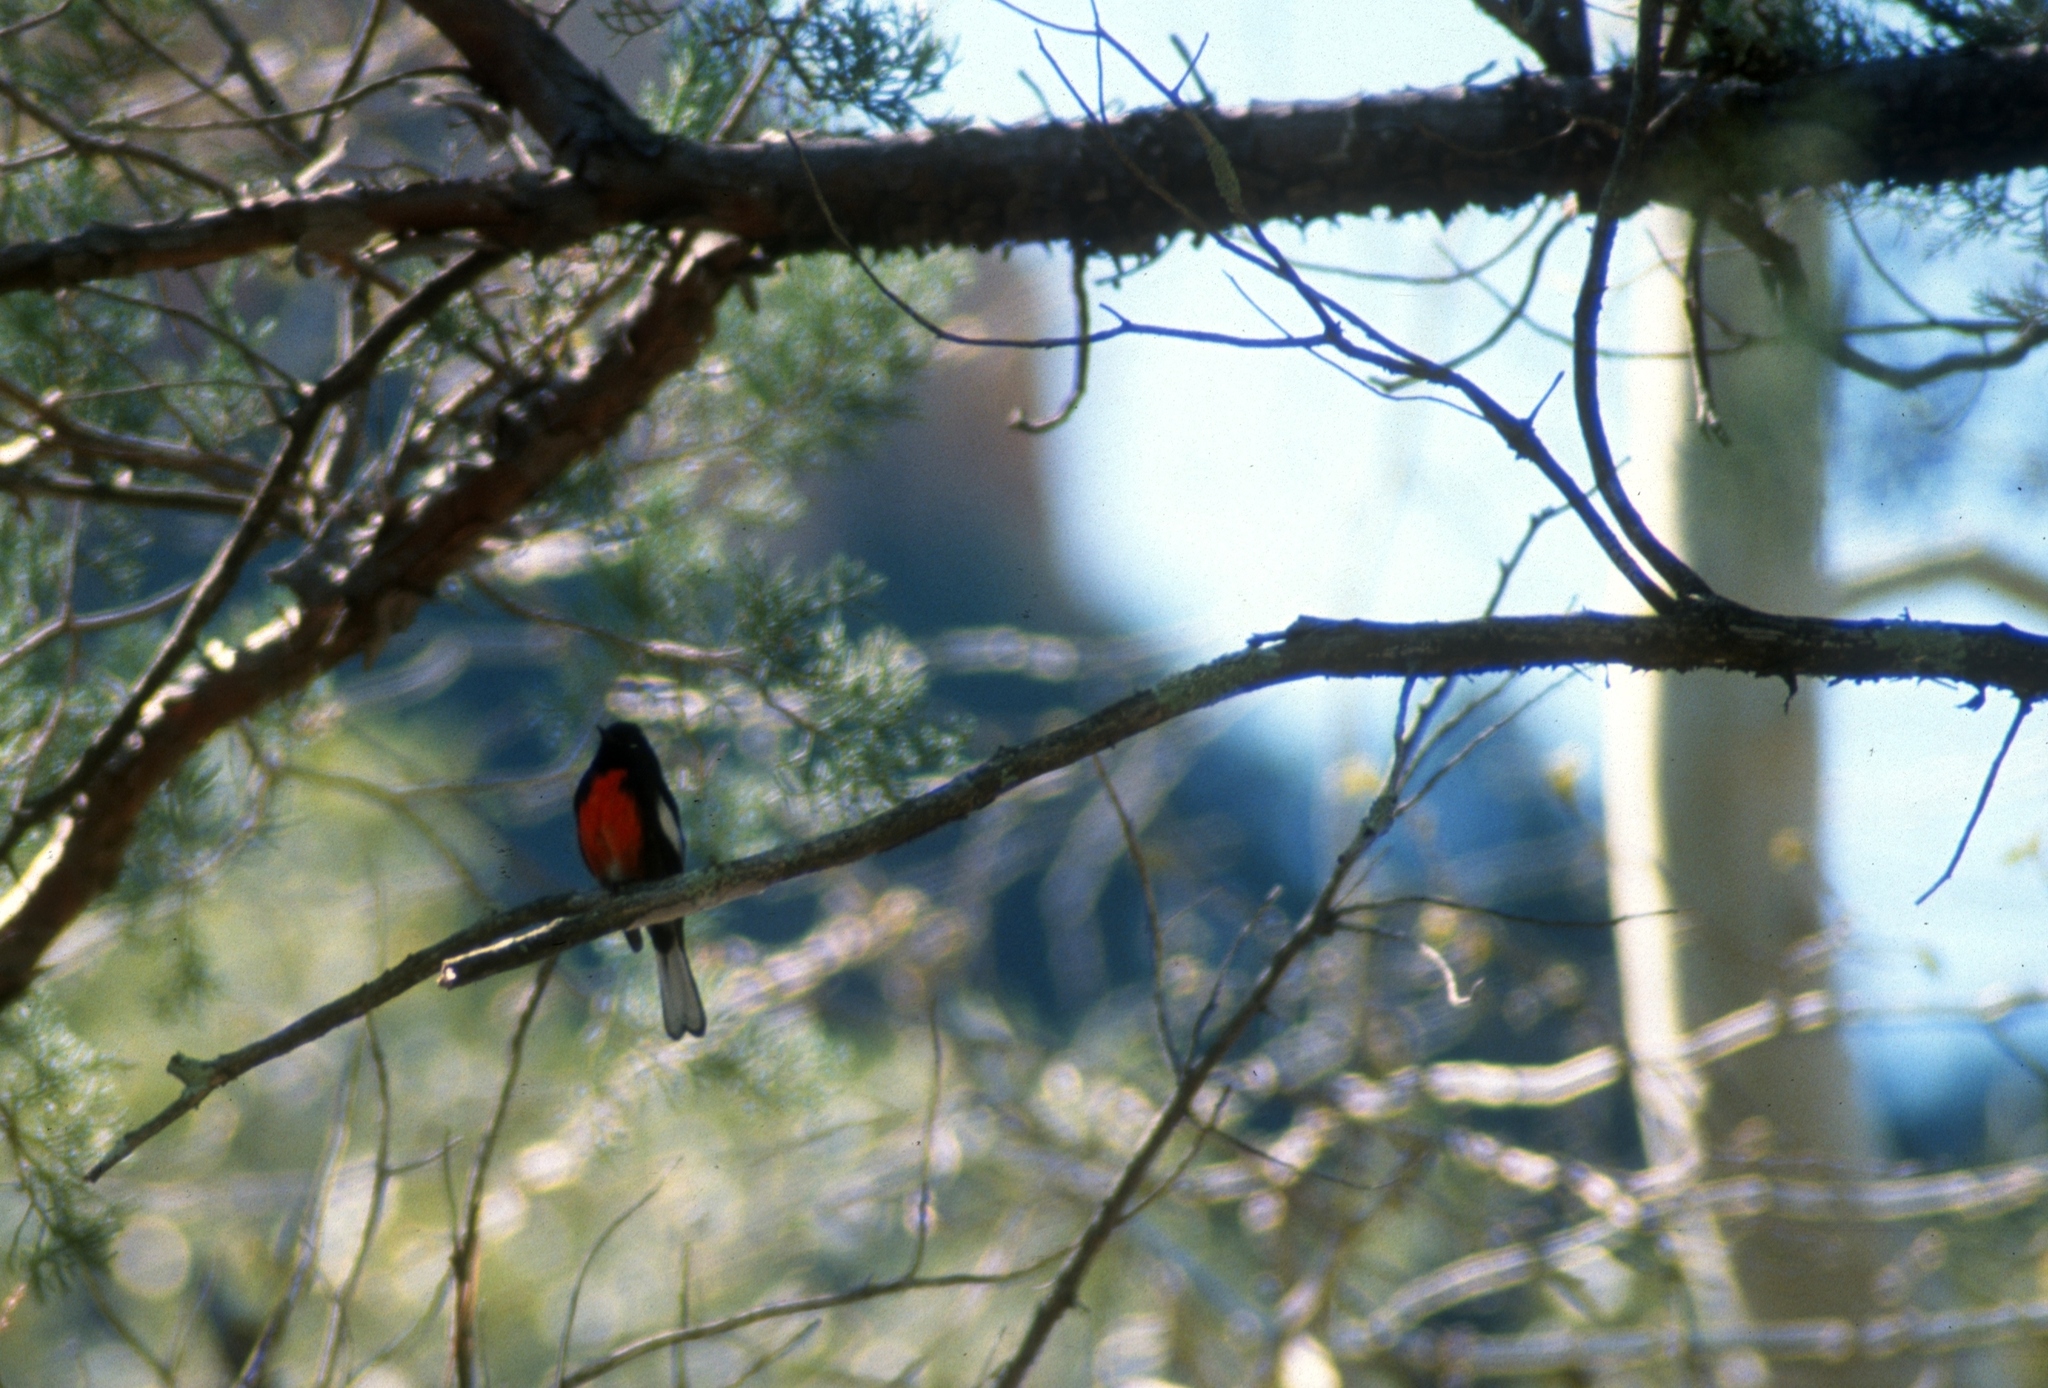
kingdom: Animalia
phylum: Chordata
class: Aves
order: Passeriformes
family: Parulidae
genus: Myioborus
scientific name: Myioborus pictus
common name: Painted whitestart
